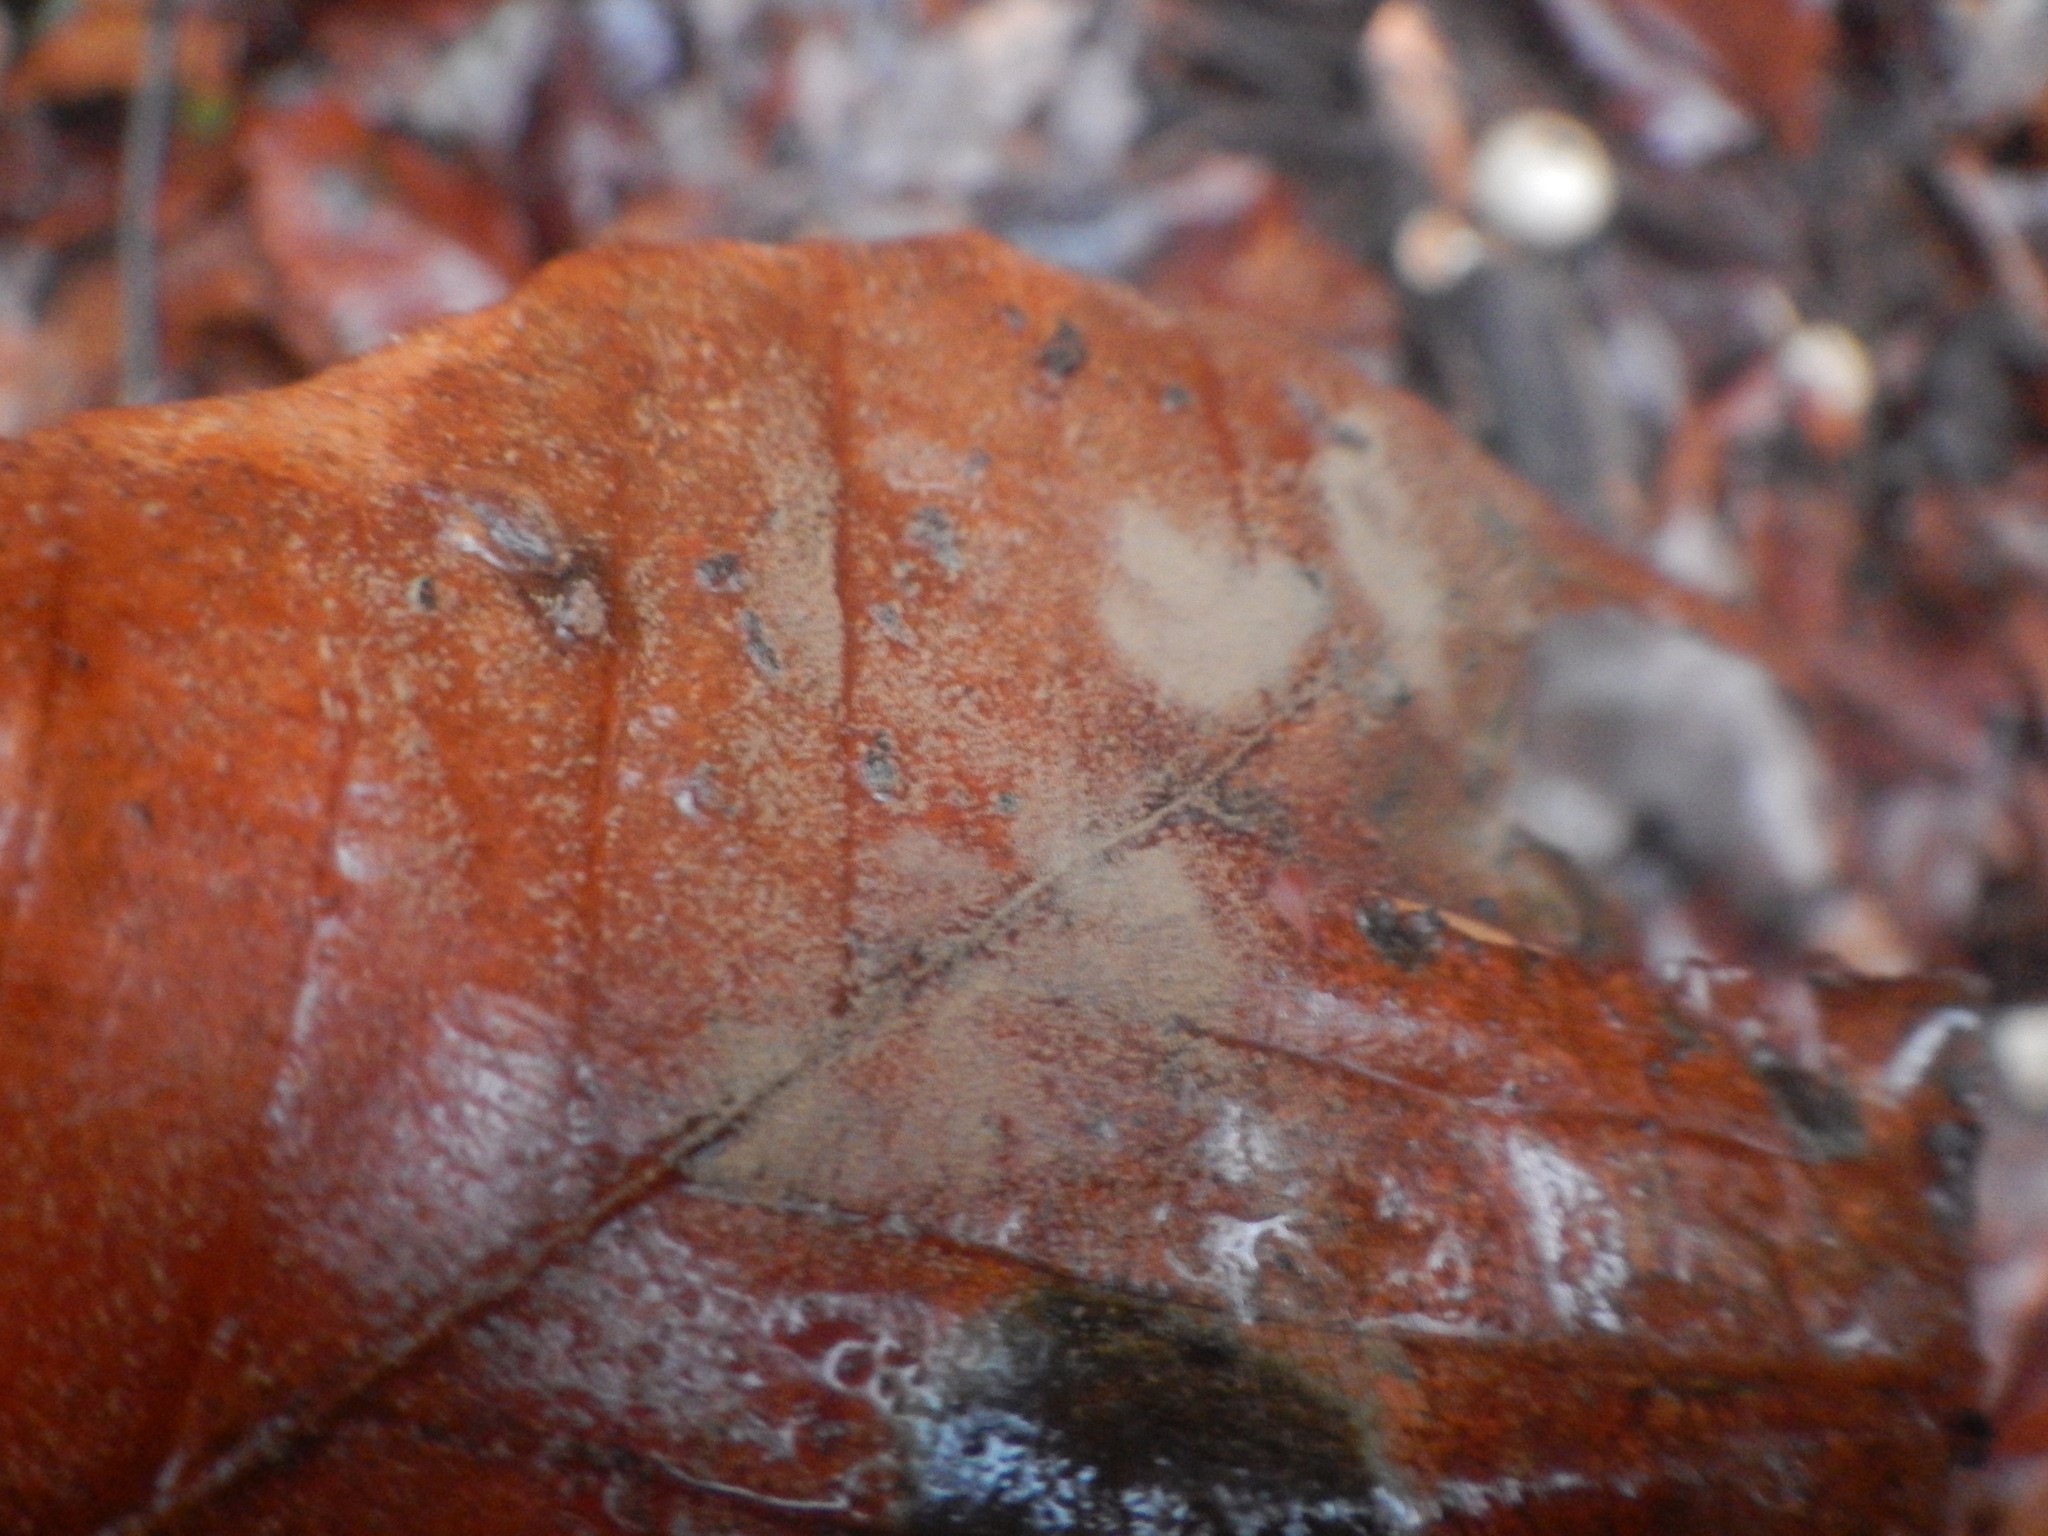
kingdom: Fungi
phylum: Basidiomycota
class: Agaricomycetes
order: Agaricales
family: Lycoperdaceae
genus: Apioperdon
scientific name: Apioperdon pyriforme
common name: Pear-shaped puffball
